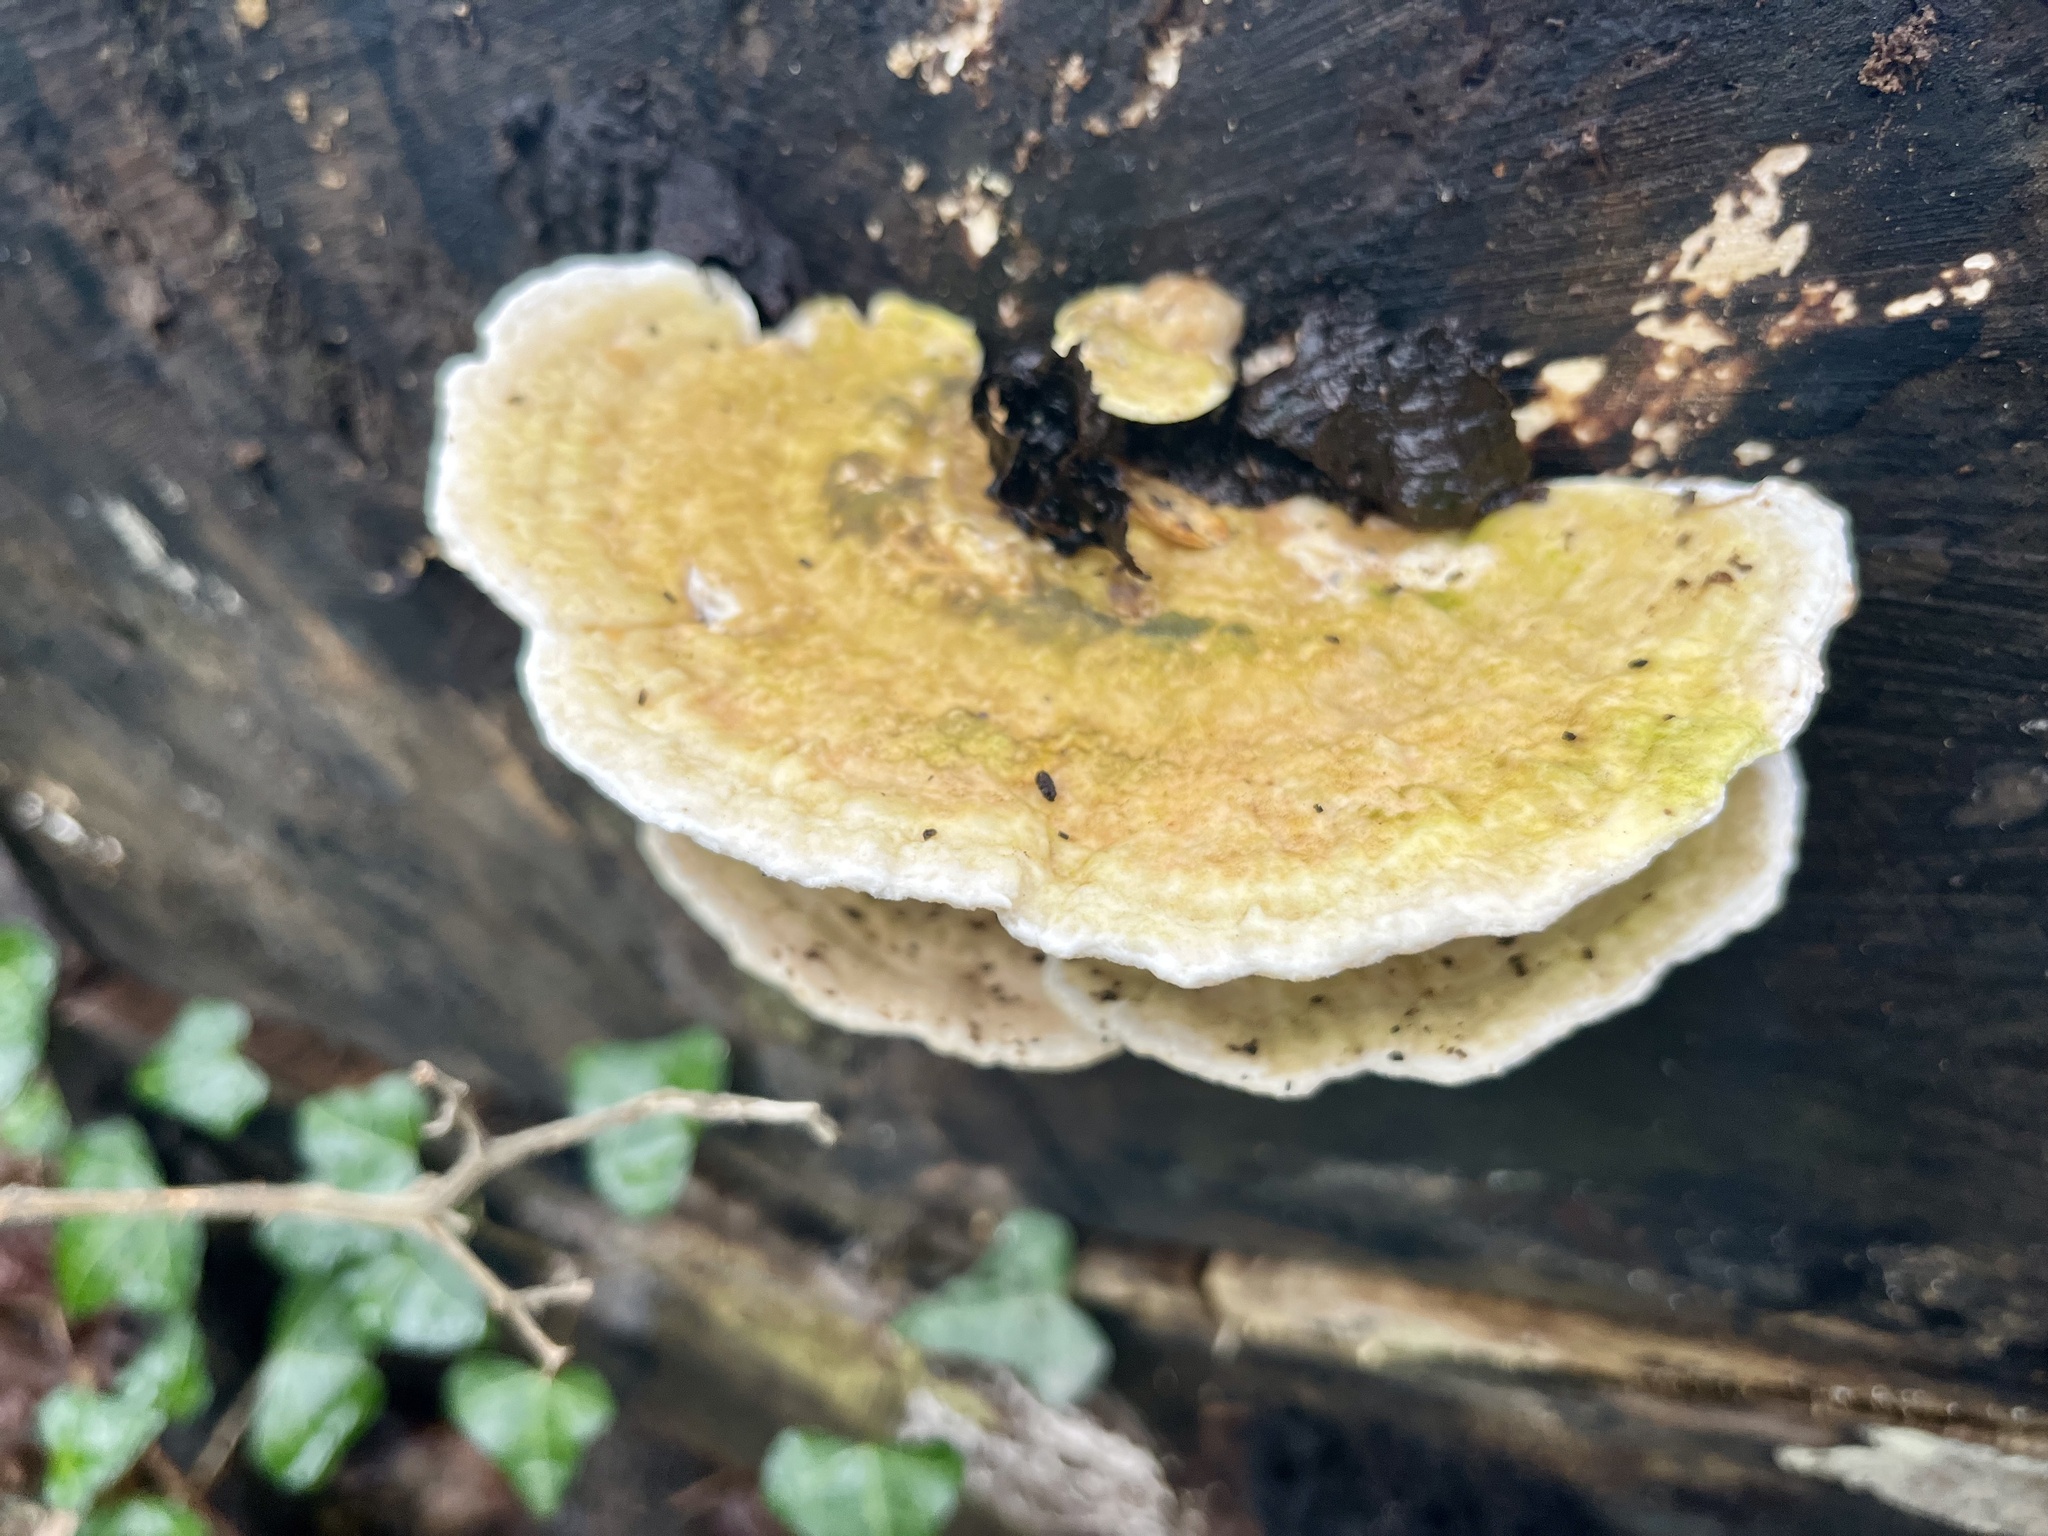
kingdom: Fungi
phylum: Basidiomycota
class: Agaricomycetes
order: Polyporales
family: Polyporaceae
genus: Trametes
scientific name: Trametes gibbosa
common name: Lumpy bracket
